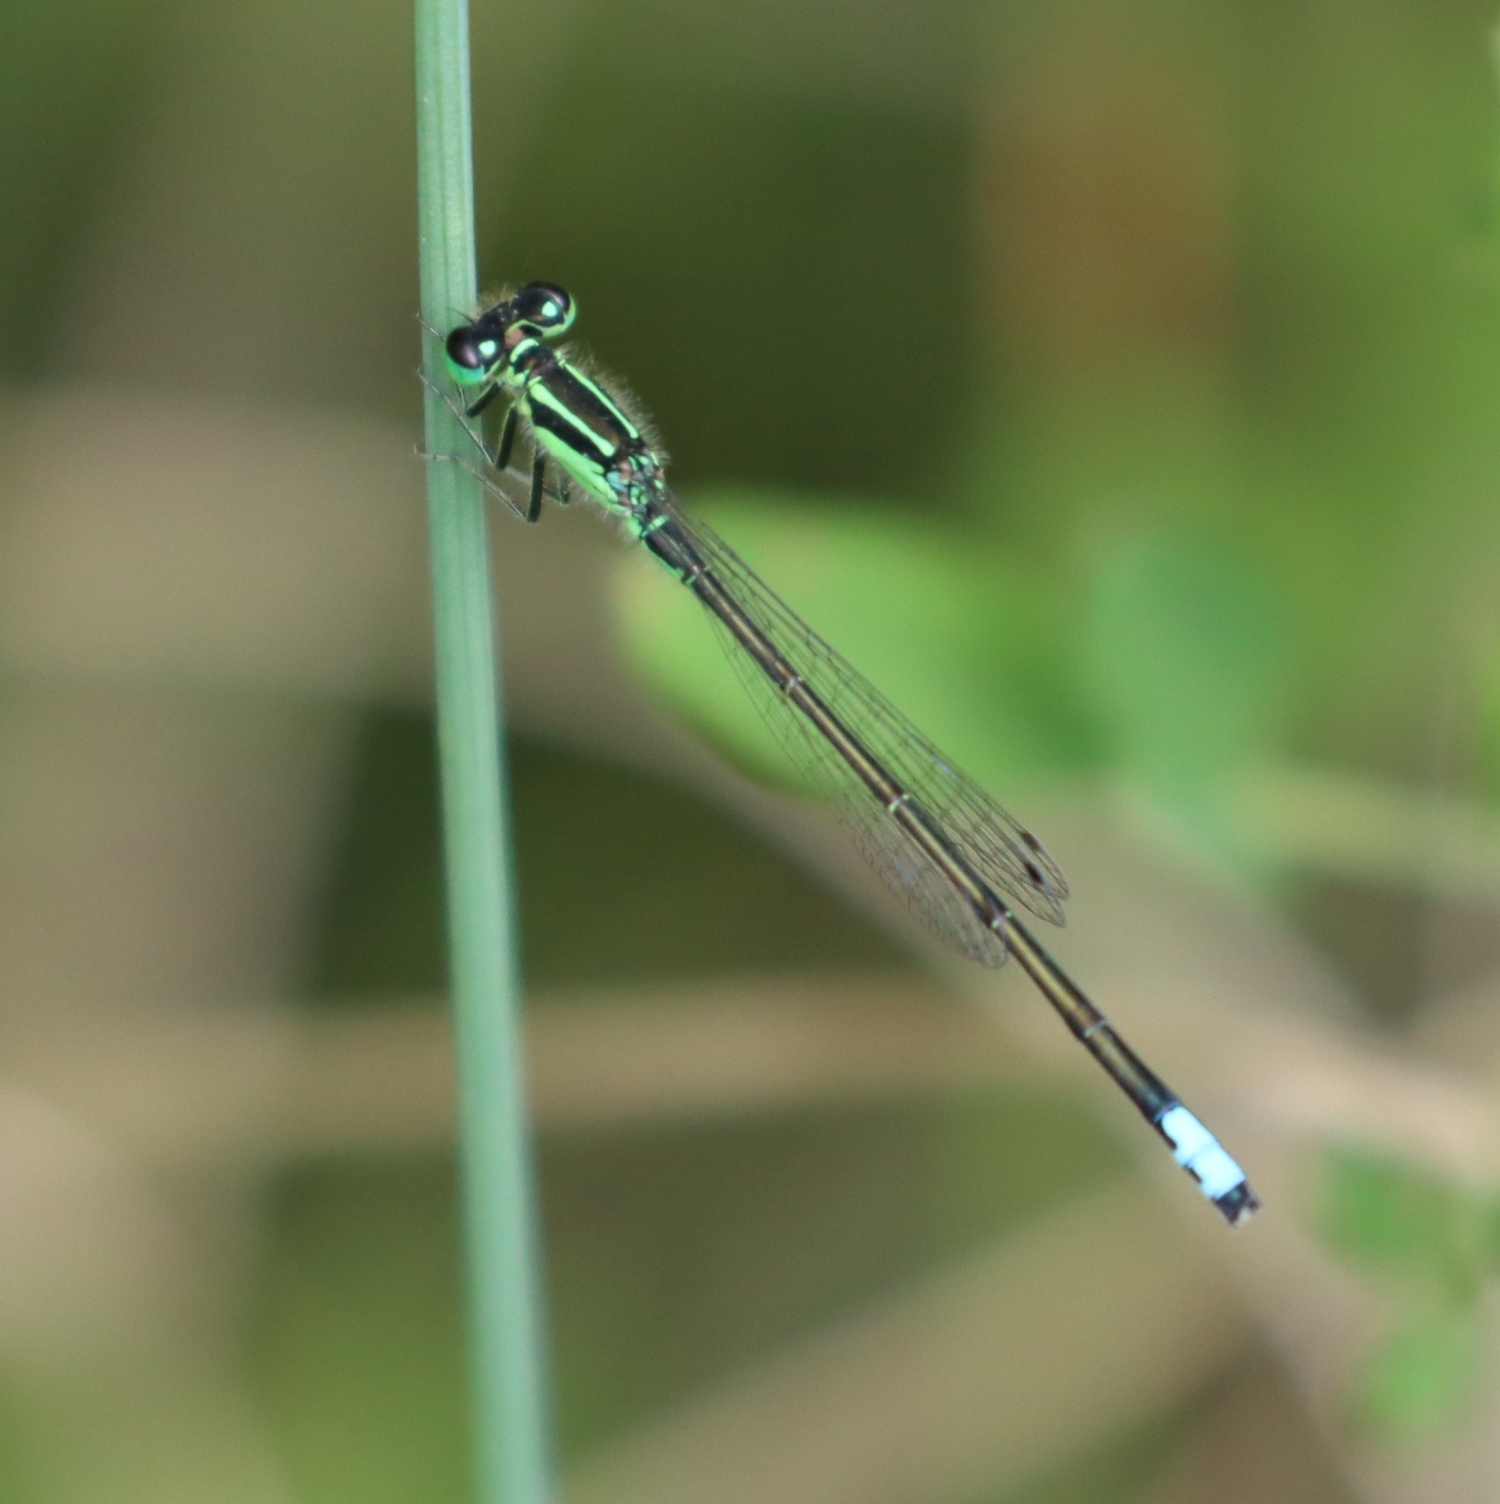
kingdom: Animalia
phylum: Arthropoda
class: Insecta
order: Odonata
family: Coenagrionidae
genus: Ischnura
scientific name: Ischnura verticalis
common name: Eastern forktail
